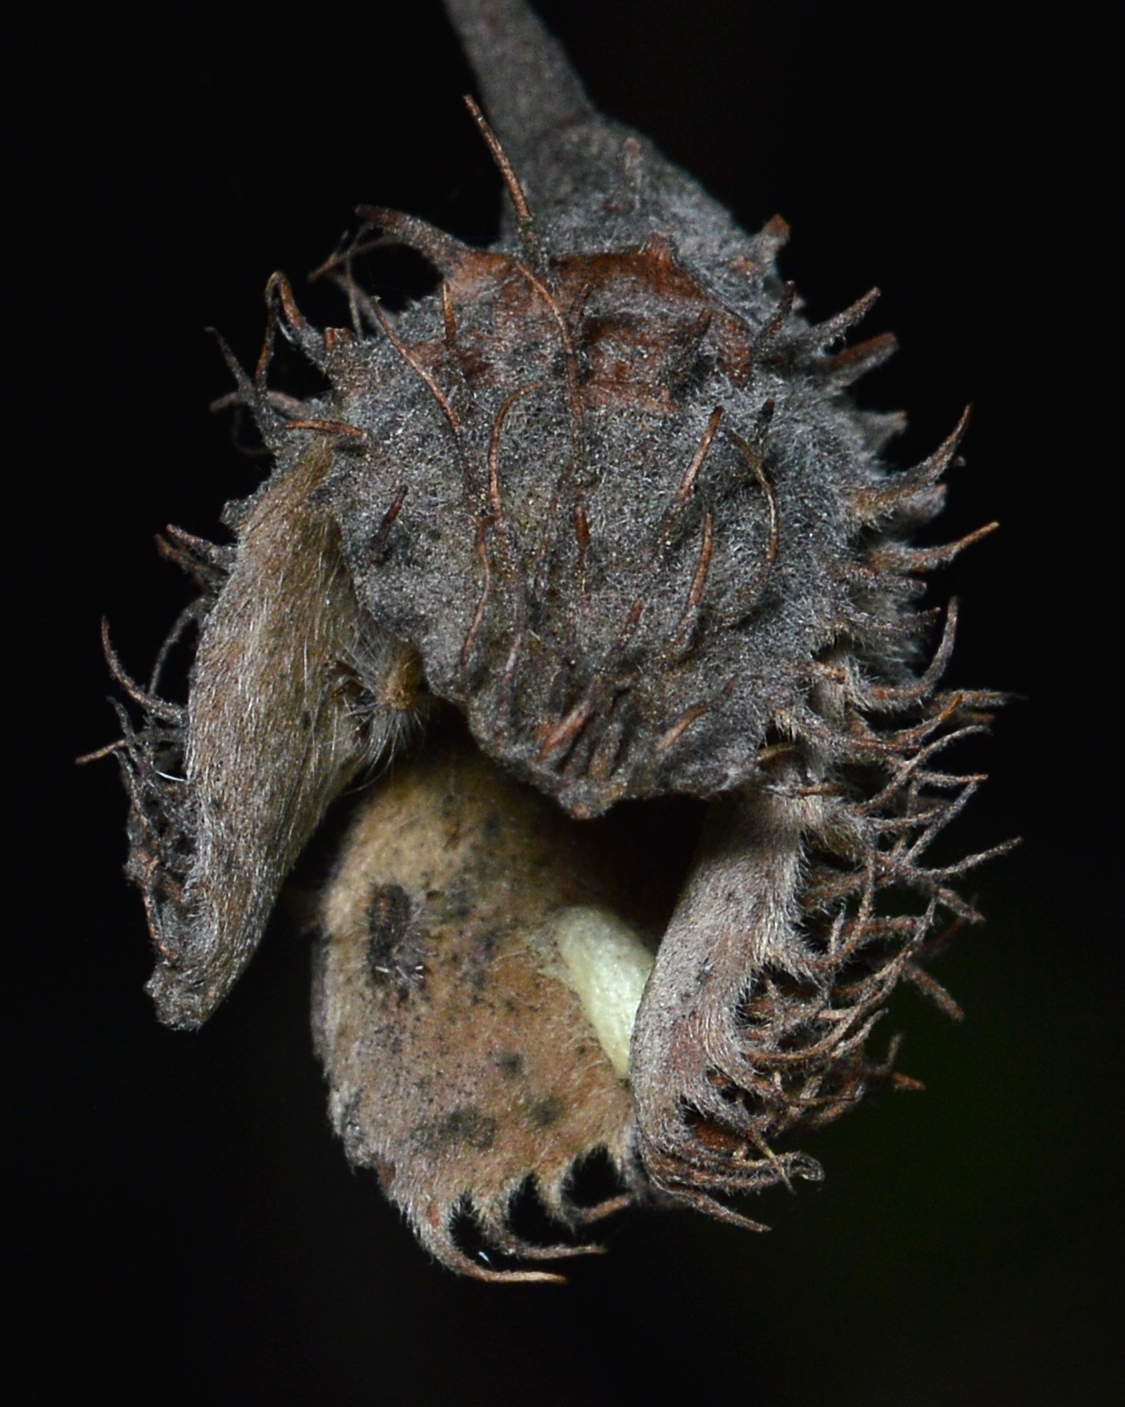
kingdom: Plantae
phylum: Tracheophyta
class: Magnoliopsida
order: Fagales
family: Fagaceae
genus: Fagus
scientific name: Fagus grandifolia
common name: American beech
